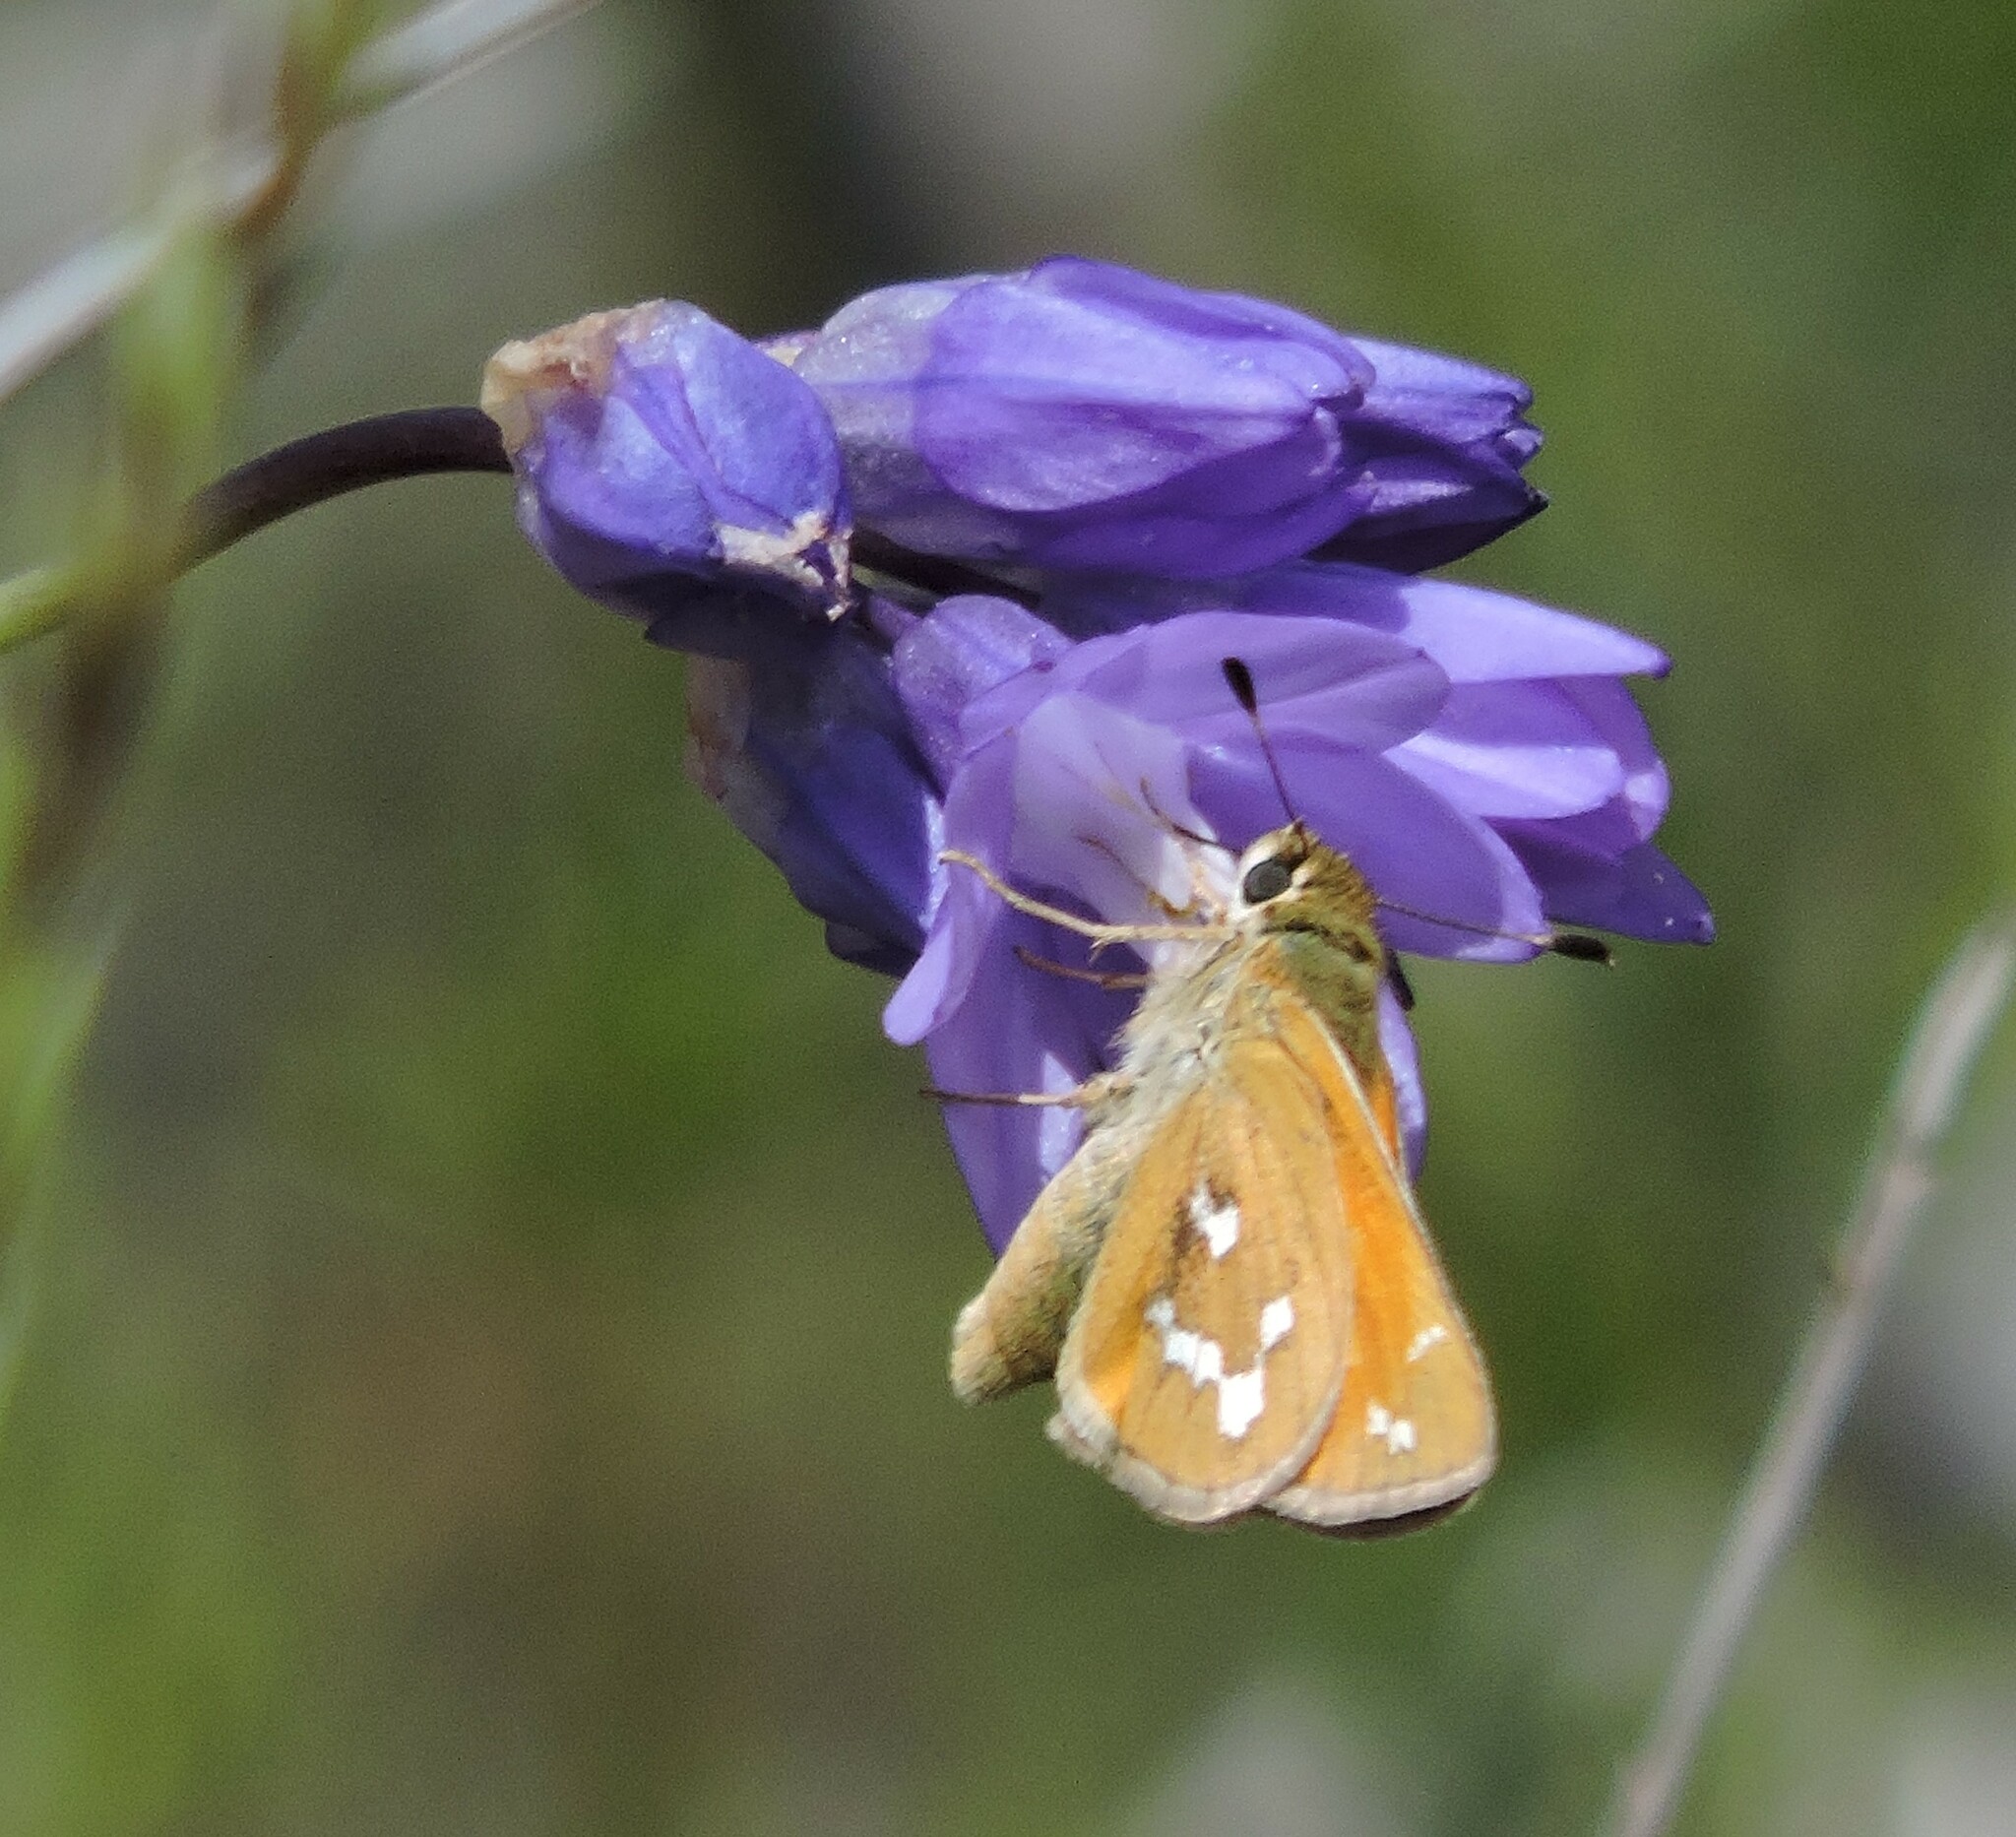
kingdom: Animalia
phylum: Arthropoda
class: Insecta
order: Lepidoptera
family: Hesperiidae
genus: Hesperia
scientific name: Hesperia columbia
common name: Columbian skipper
